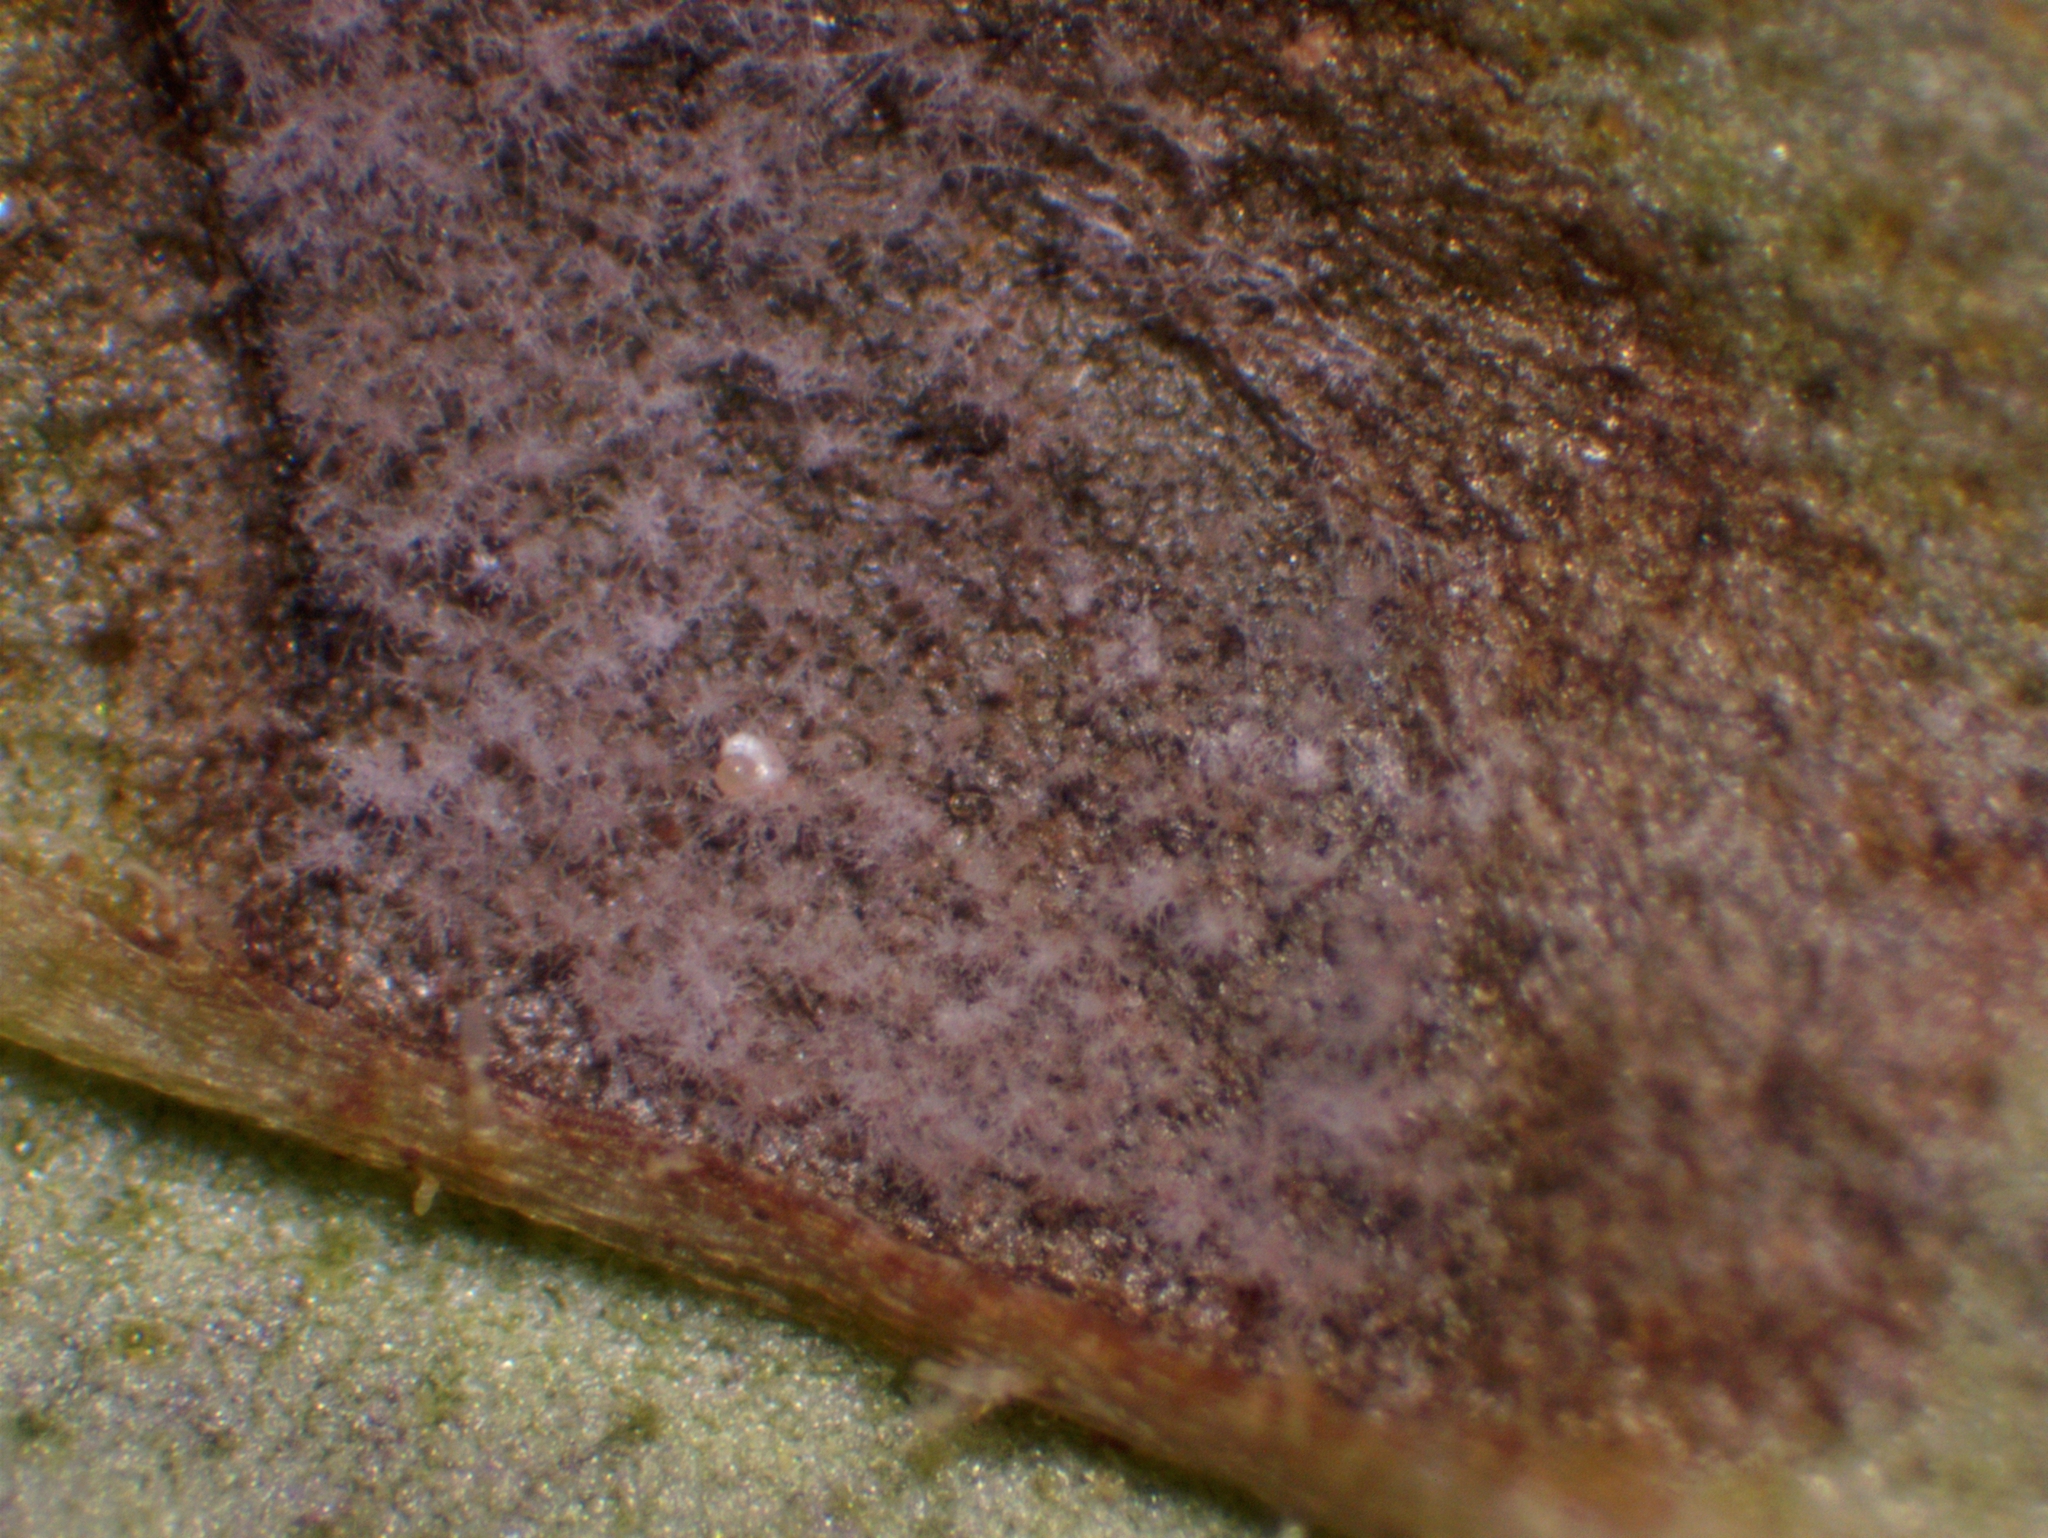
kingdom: Fungi
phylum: Ascomycota
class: Dothideomycetes
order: Mycosphaerellales
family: Mycosphaerellaceae
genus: Ramularia
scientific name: Ramularia ajugae
